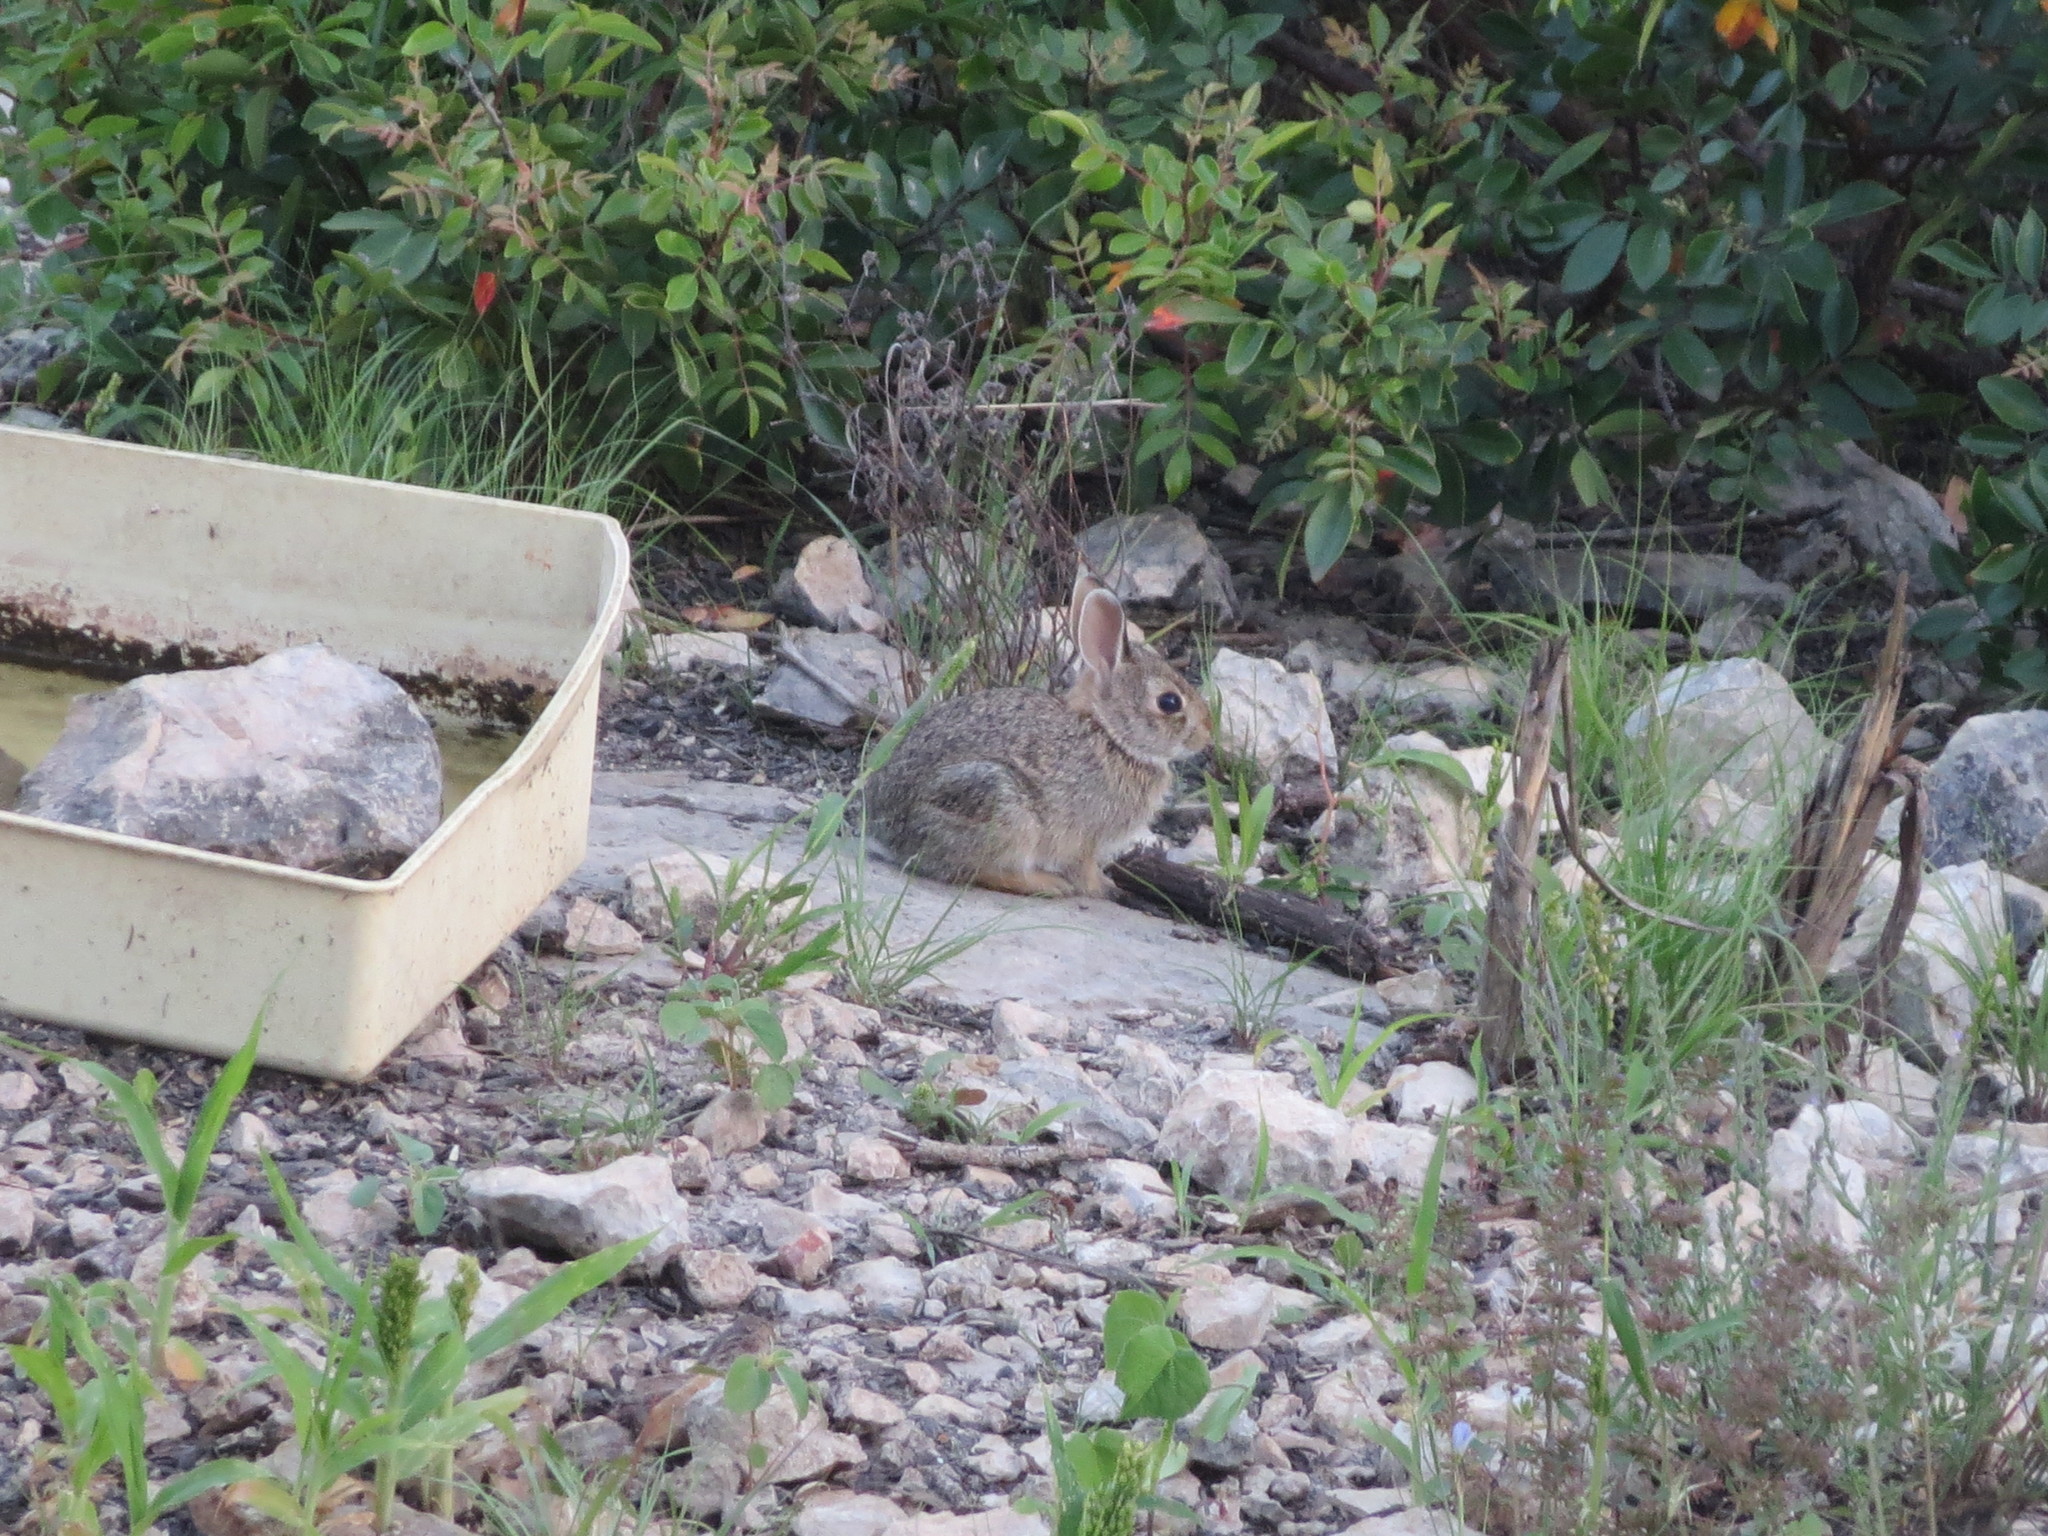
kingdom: Animalia
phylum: Chordata
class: Mammalia
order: Lagomorpha
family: Leporidae
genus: Sylvilagus
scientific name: Sylvilagus floridanus
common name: Eastern cottontail
